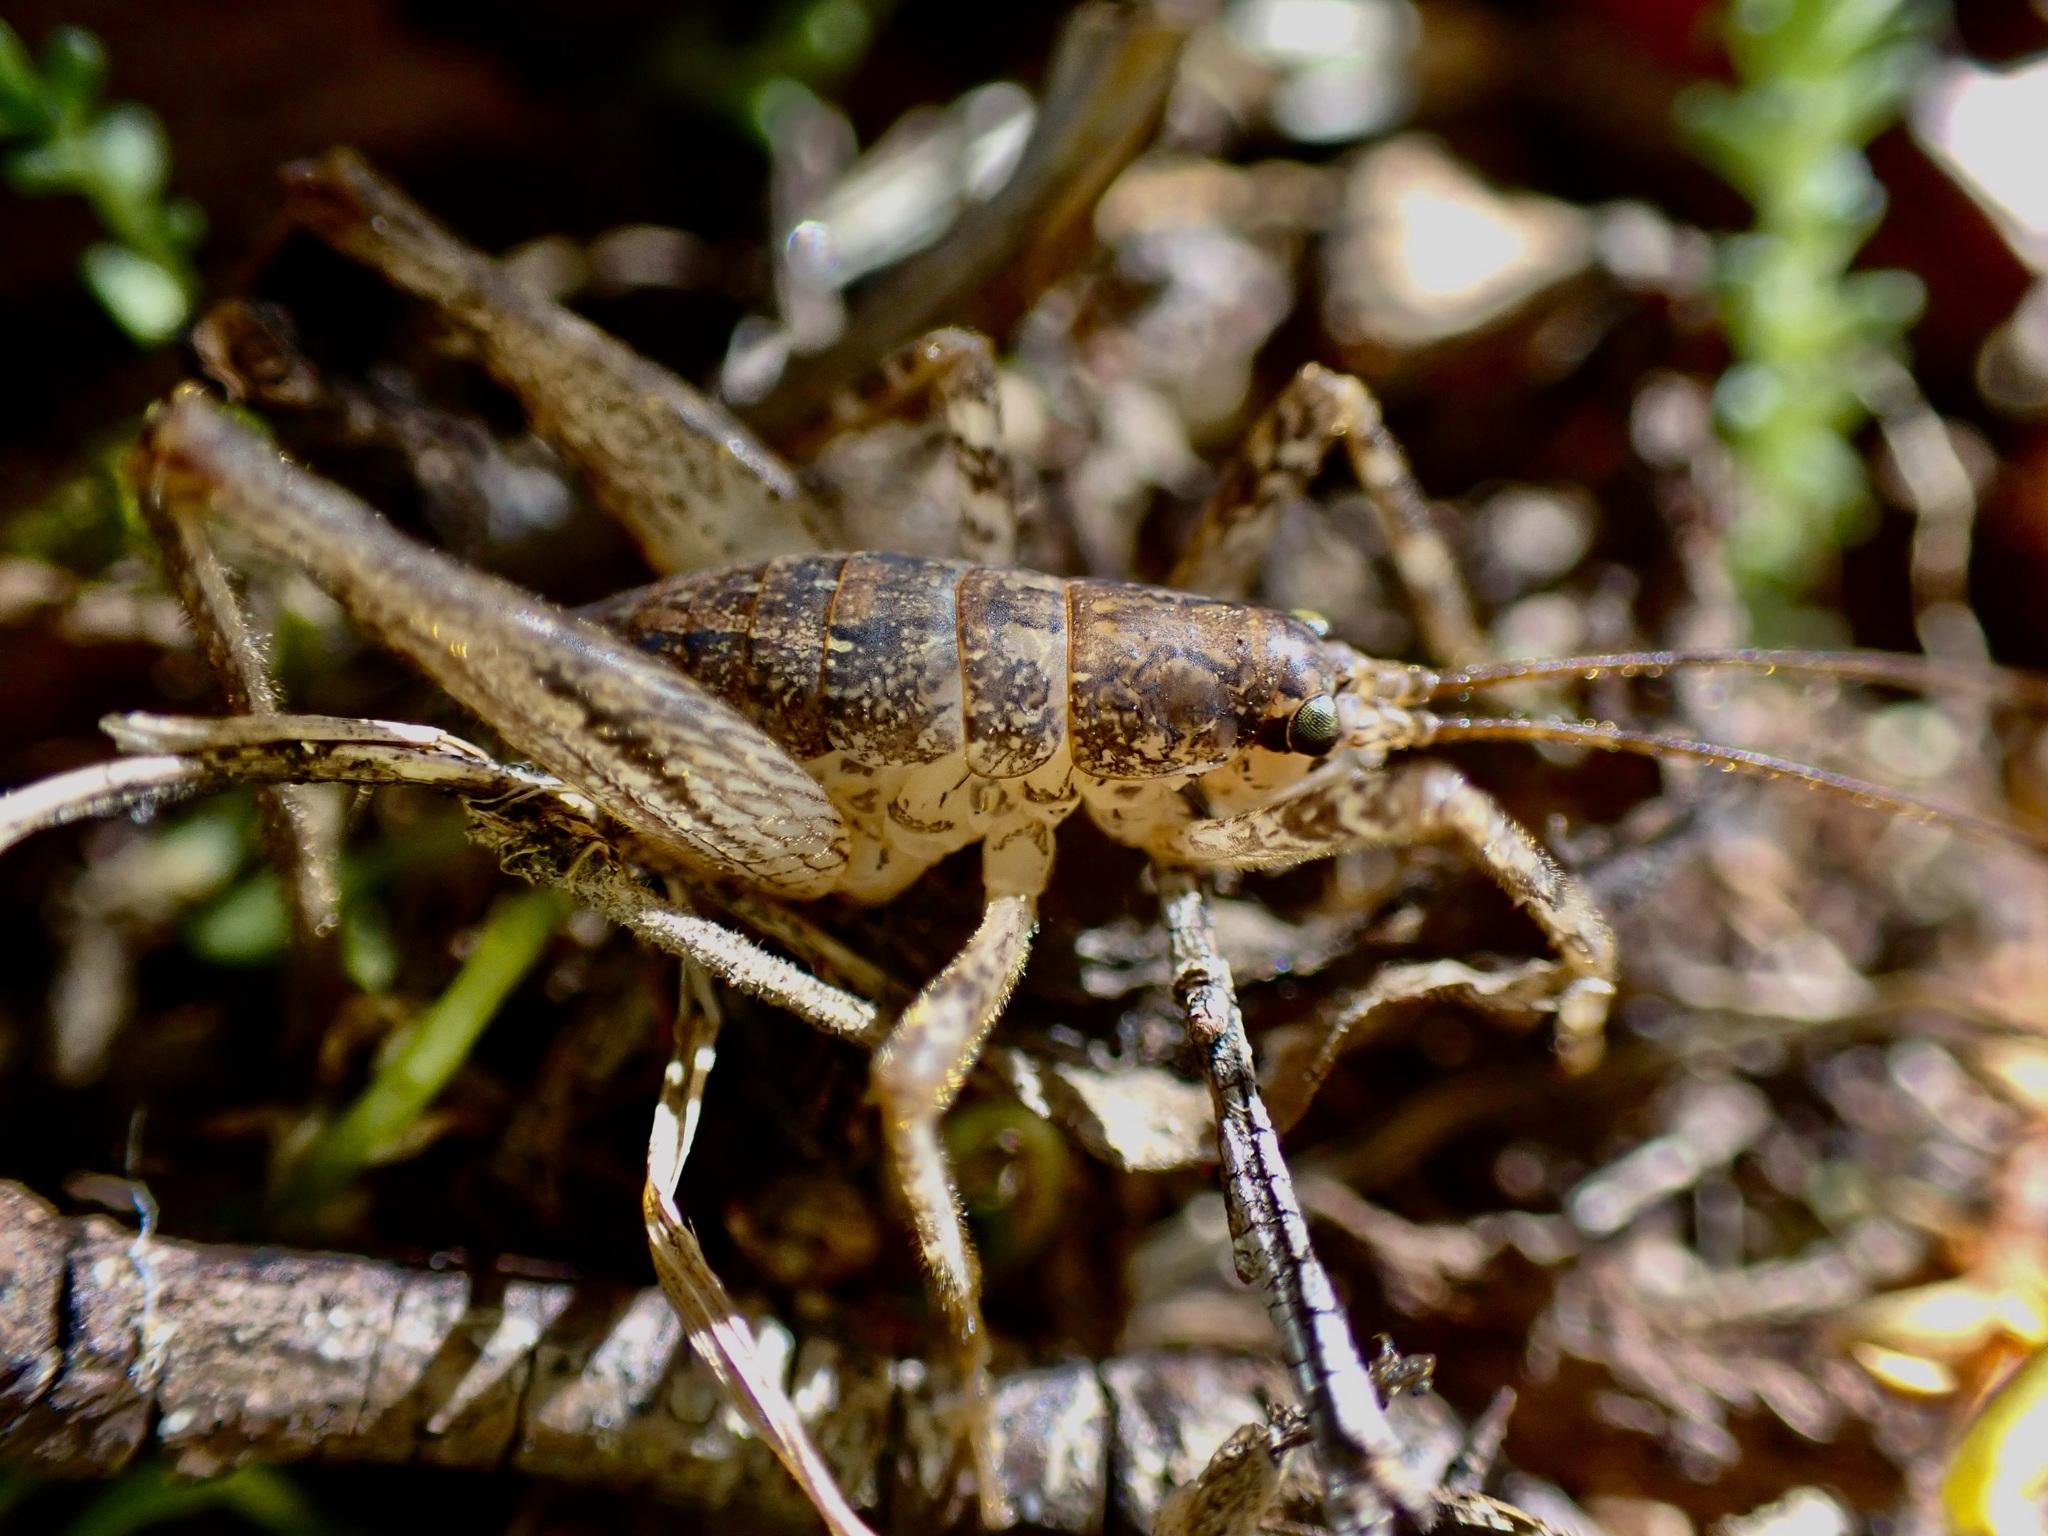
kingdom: Animalia
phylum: Arthropoda
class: Insecta
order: Orthoptera
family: Rhaphidophoridae
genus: Isoplectron
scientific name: Isoplectron armatum
